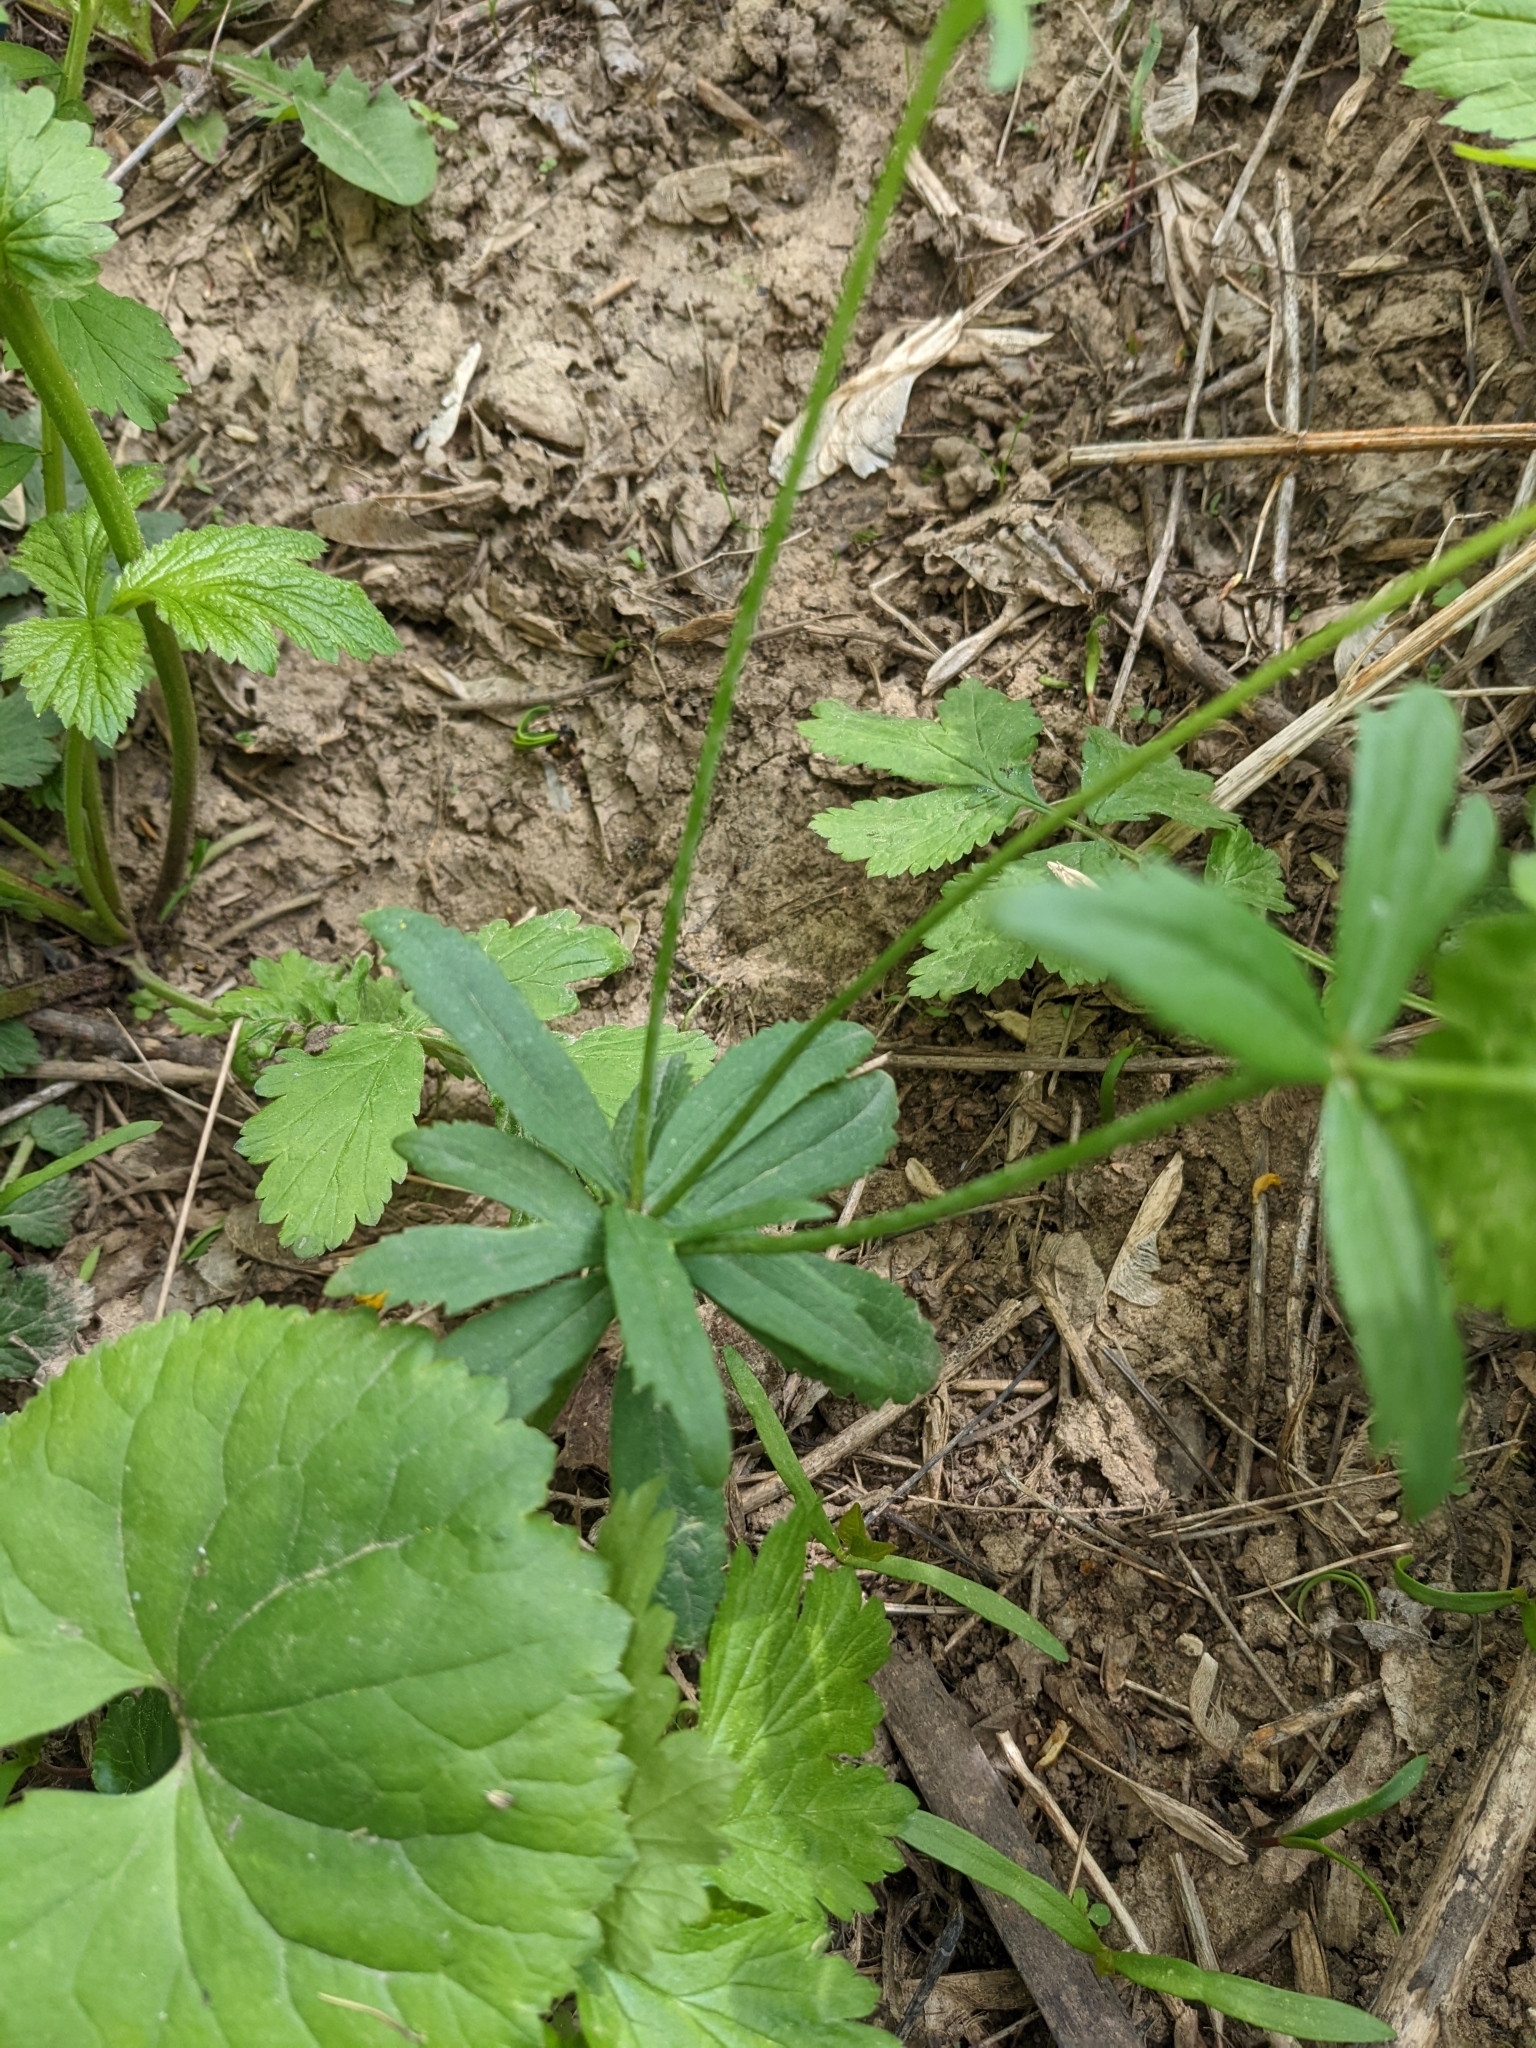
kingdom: Plantae
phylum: Tracheophyta
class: Magnoliopsida
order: Ranunculales
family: Ranunculaceae
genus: Ranunculus
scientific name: Ranunculus cassubicus
